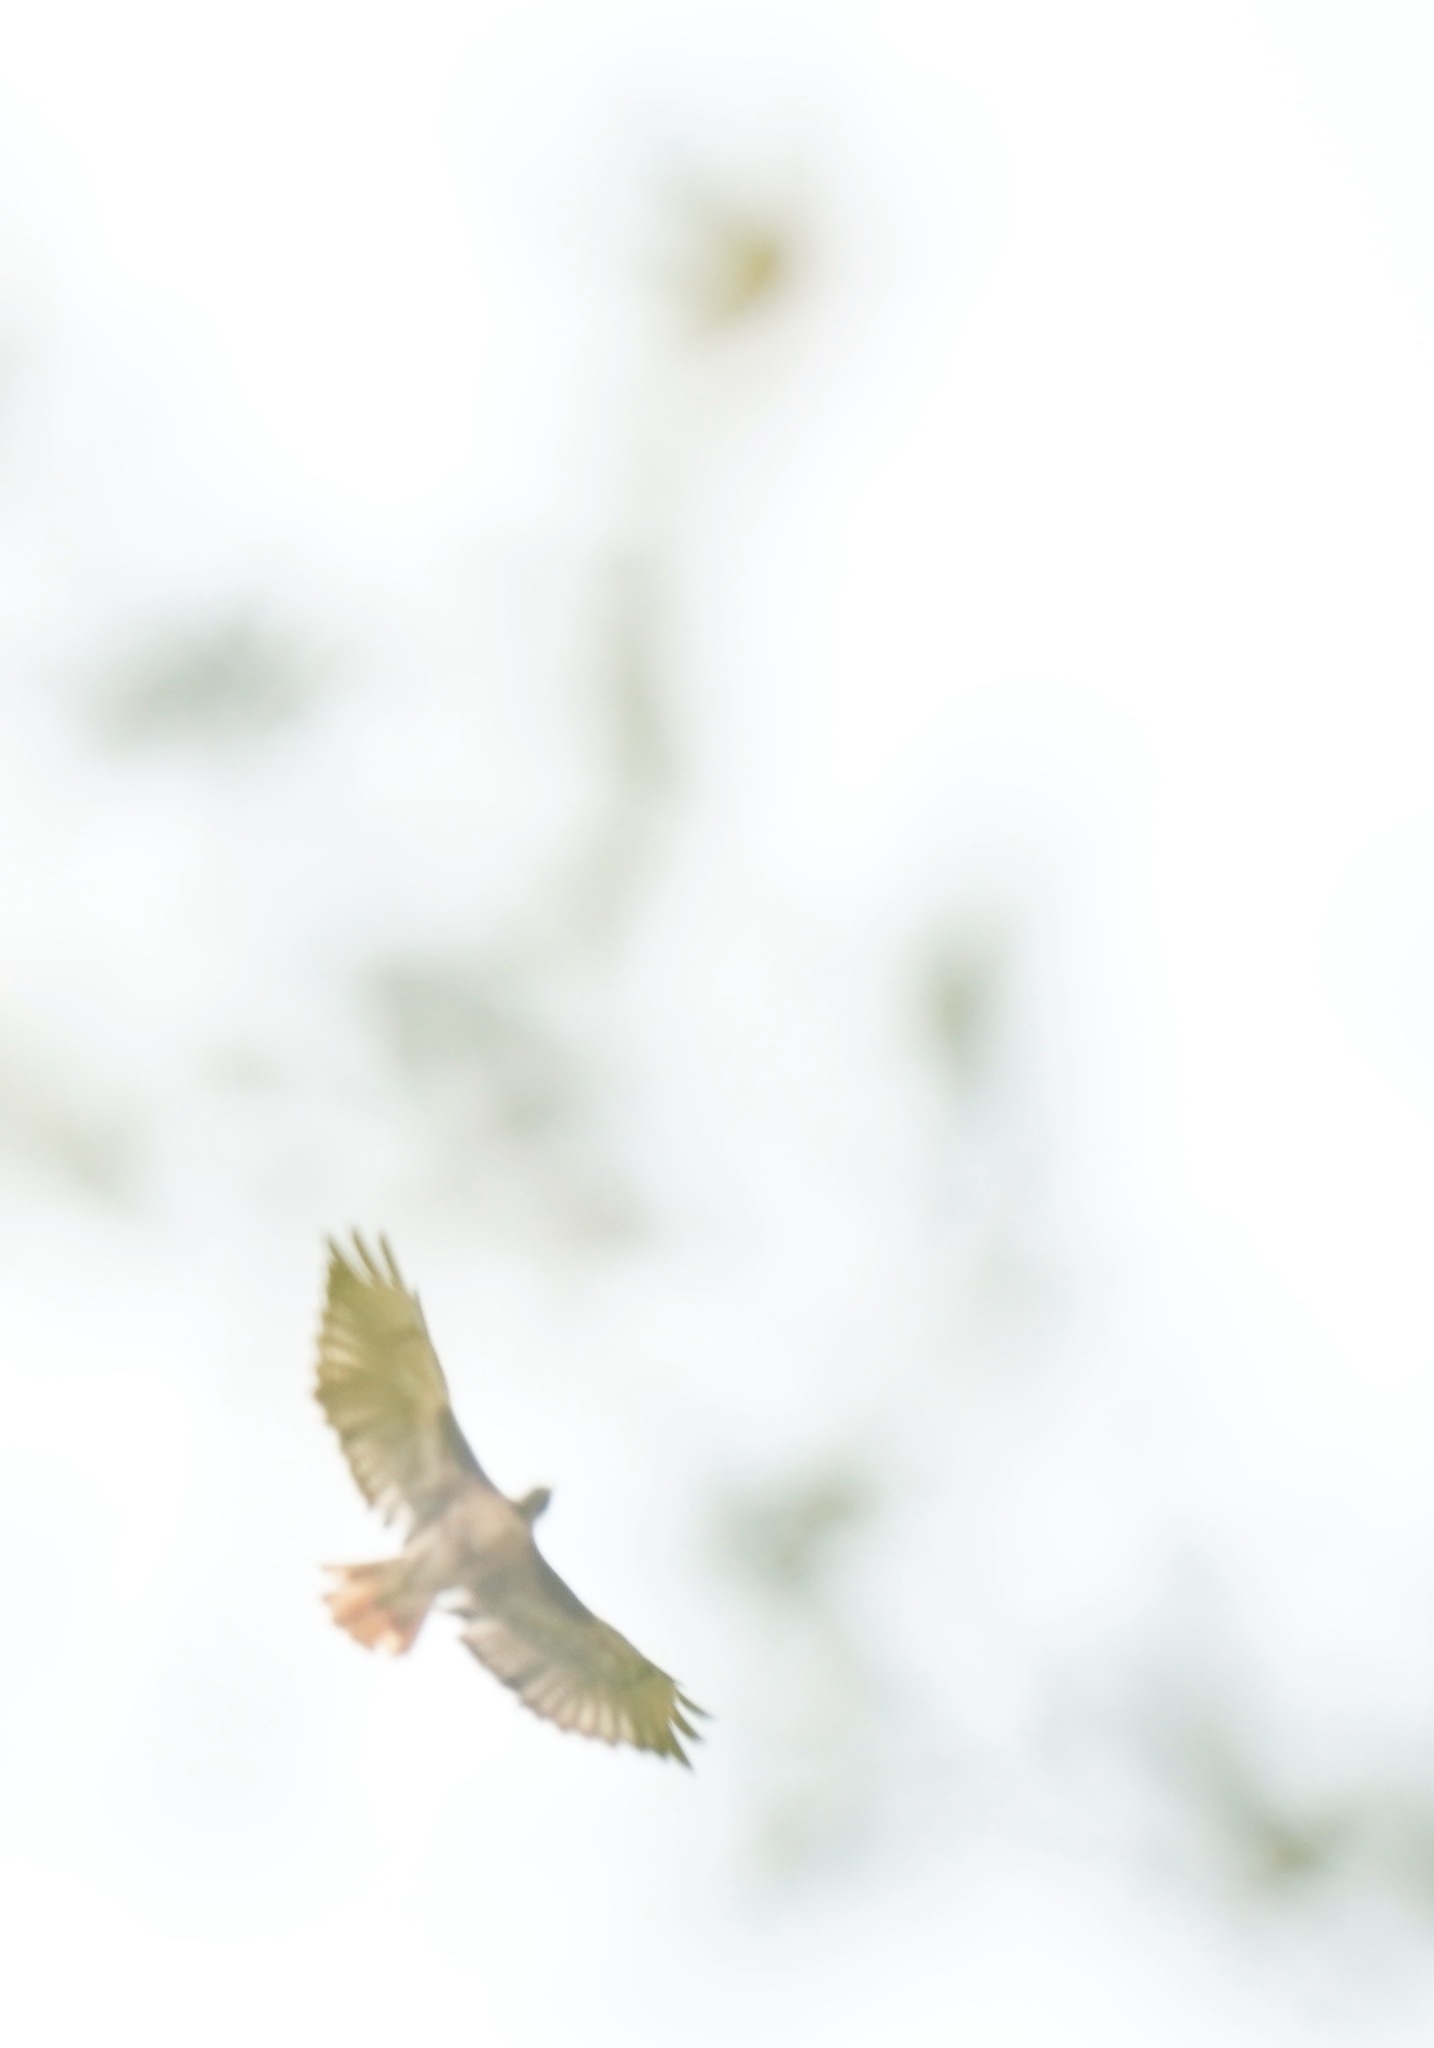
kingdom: Animalia
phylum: Chordata
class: Aves
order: Accipitriformes
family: Accipitridae
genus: Buteo
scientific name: Buteo jamaicensis
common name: Red-tailed hawk
